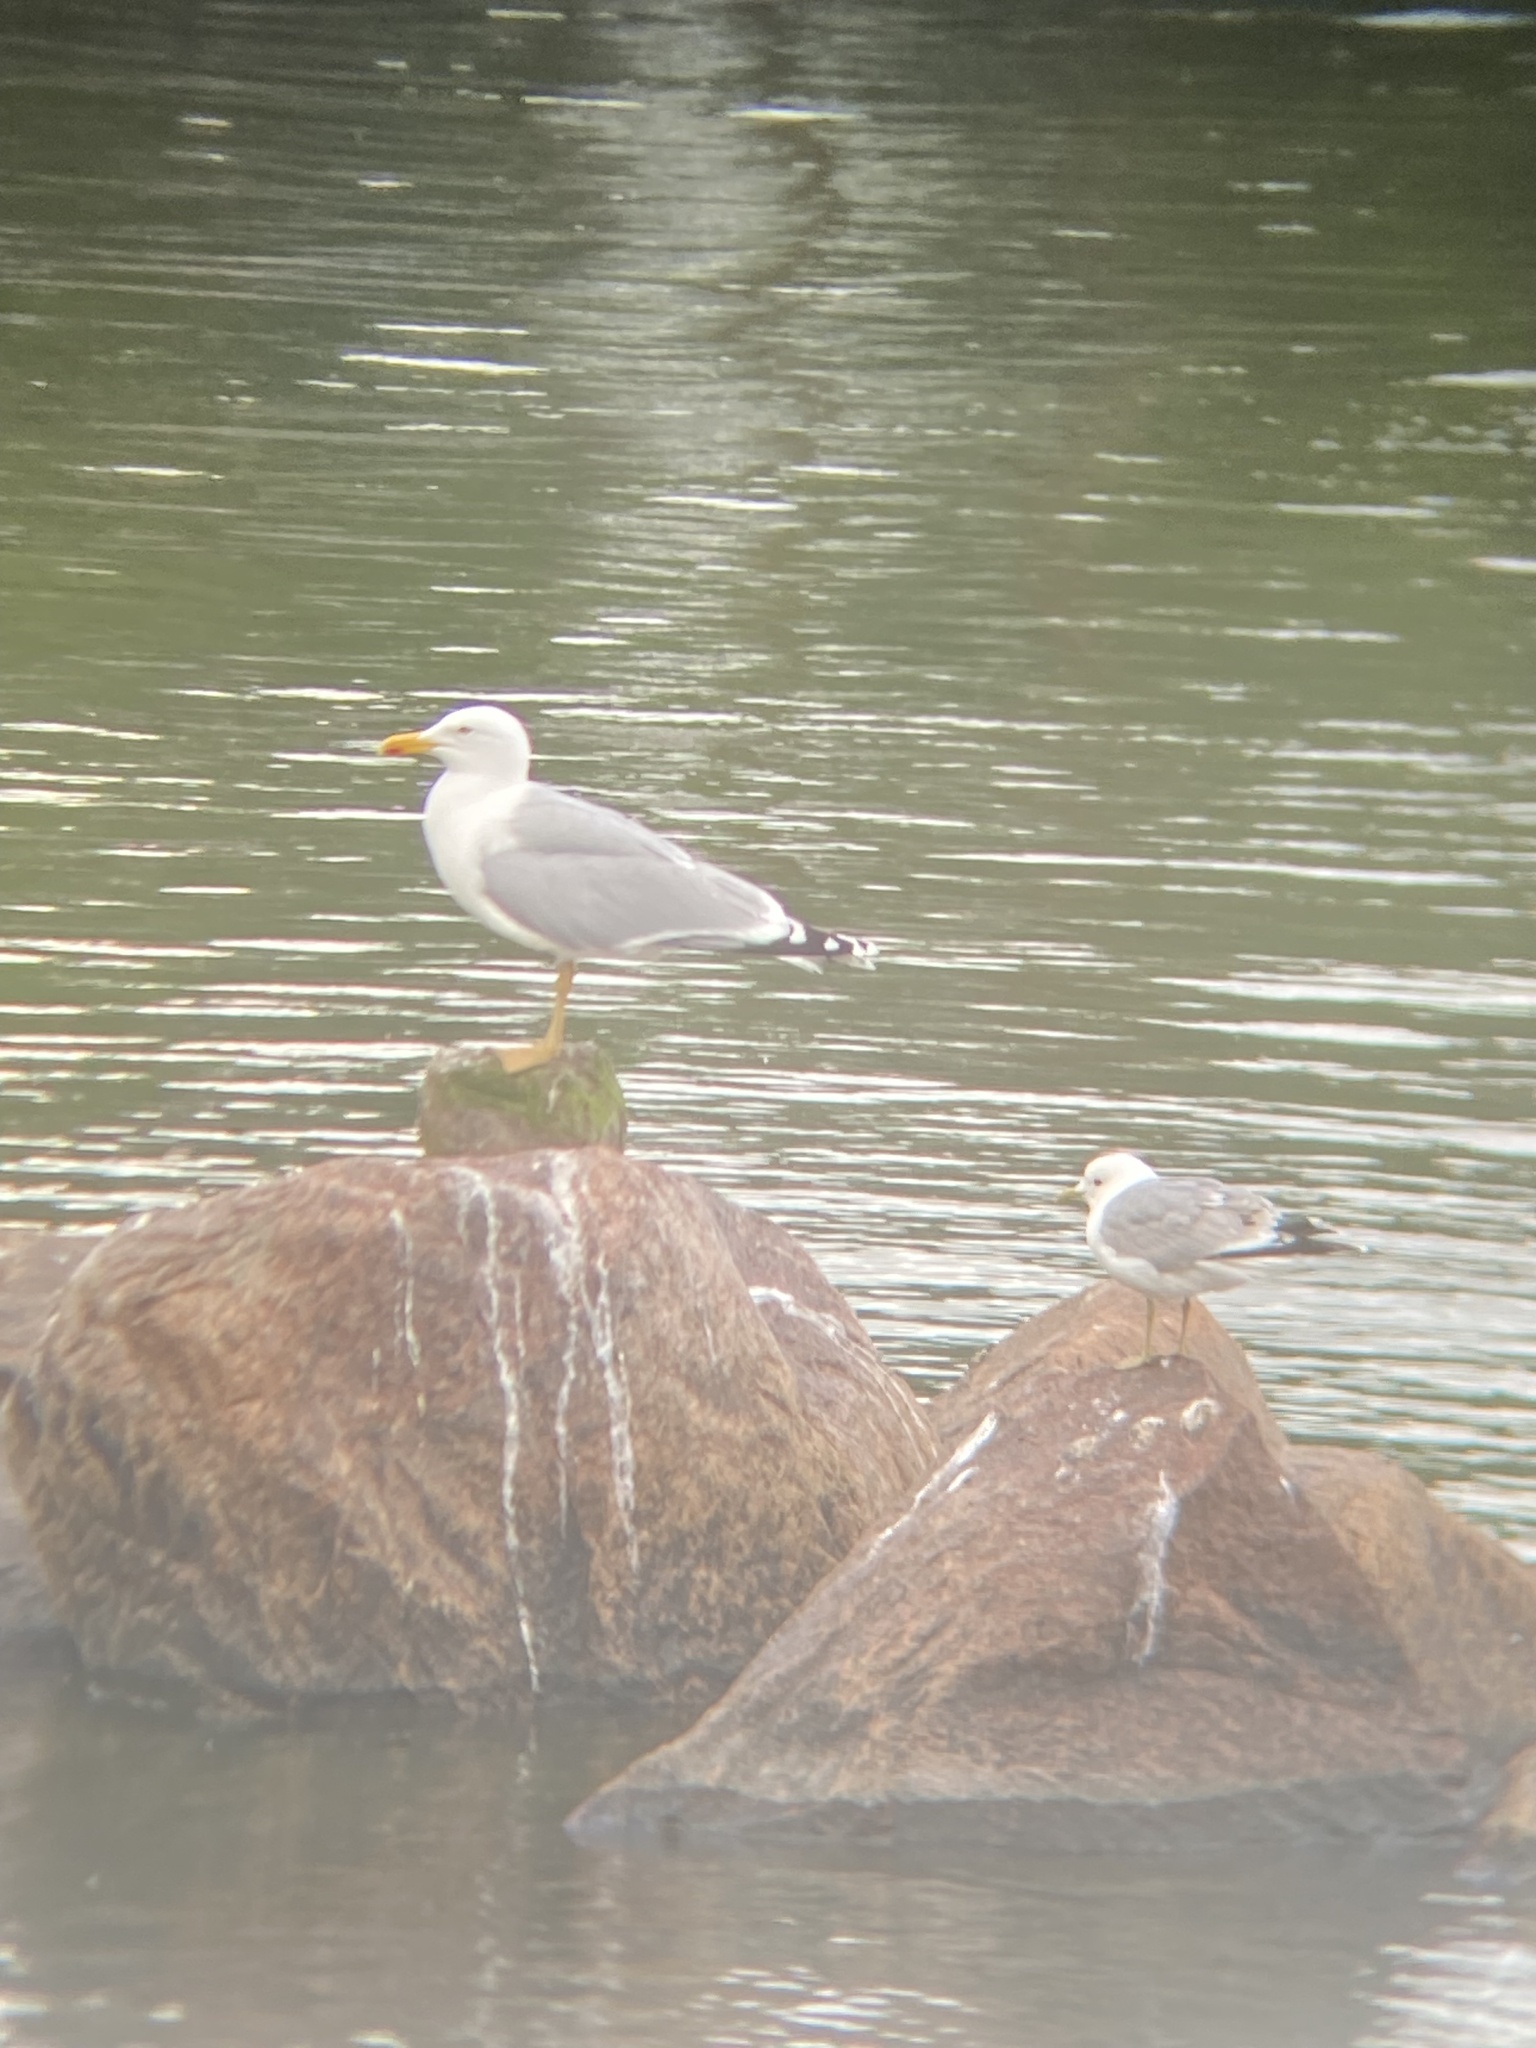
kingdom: Animalia
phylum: Chordata
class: Aves
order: Charadriiformes
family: Laridae
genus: Larus
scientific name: Larus argentatus
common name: Herring gull
